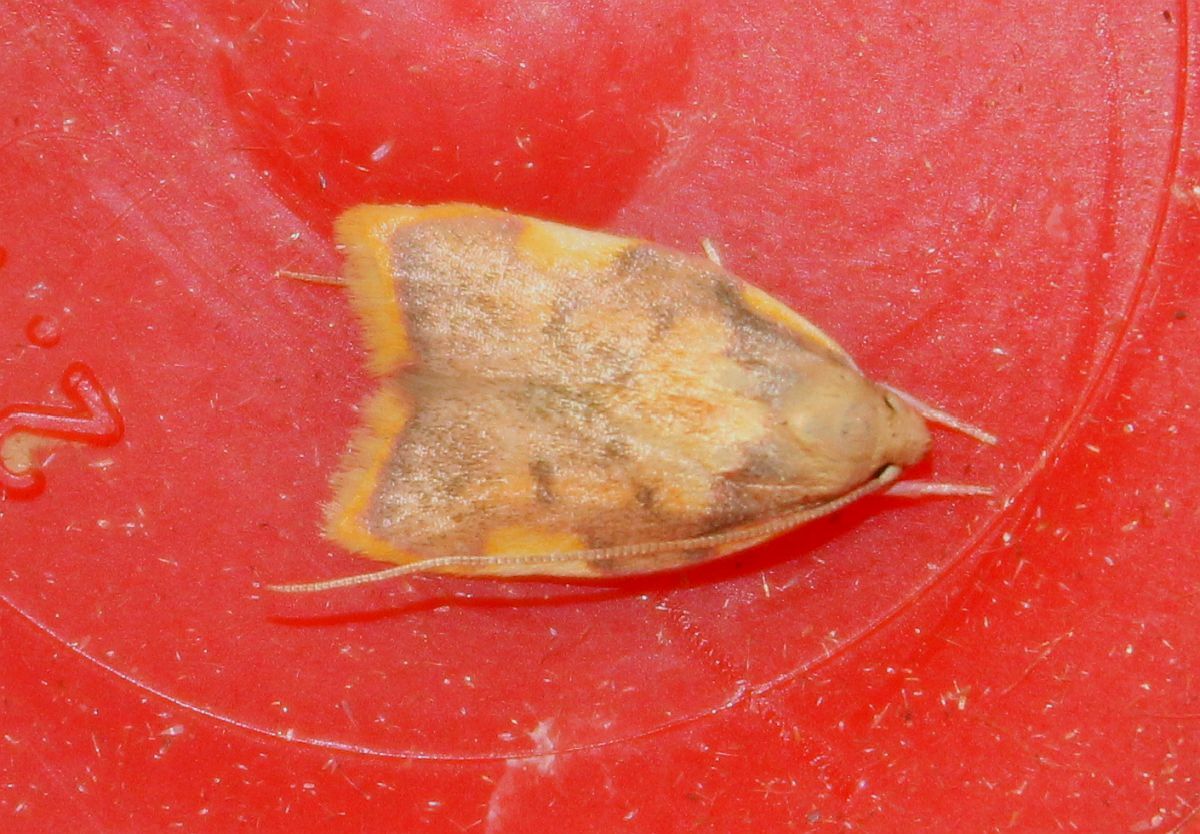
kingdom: Animalia
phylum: Arthropoda
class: Insecta
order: Lepidoptera
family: Peleopodidae
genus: Carcina
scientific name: Carcina quercana
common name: Moth
